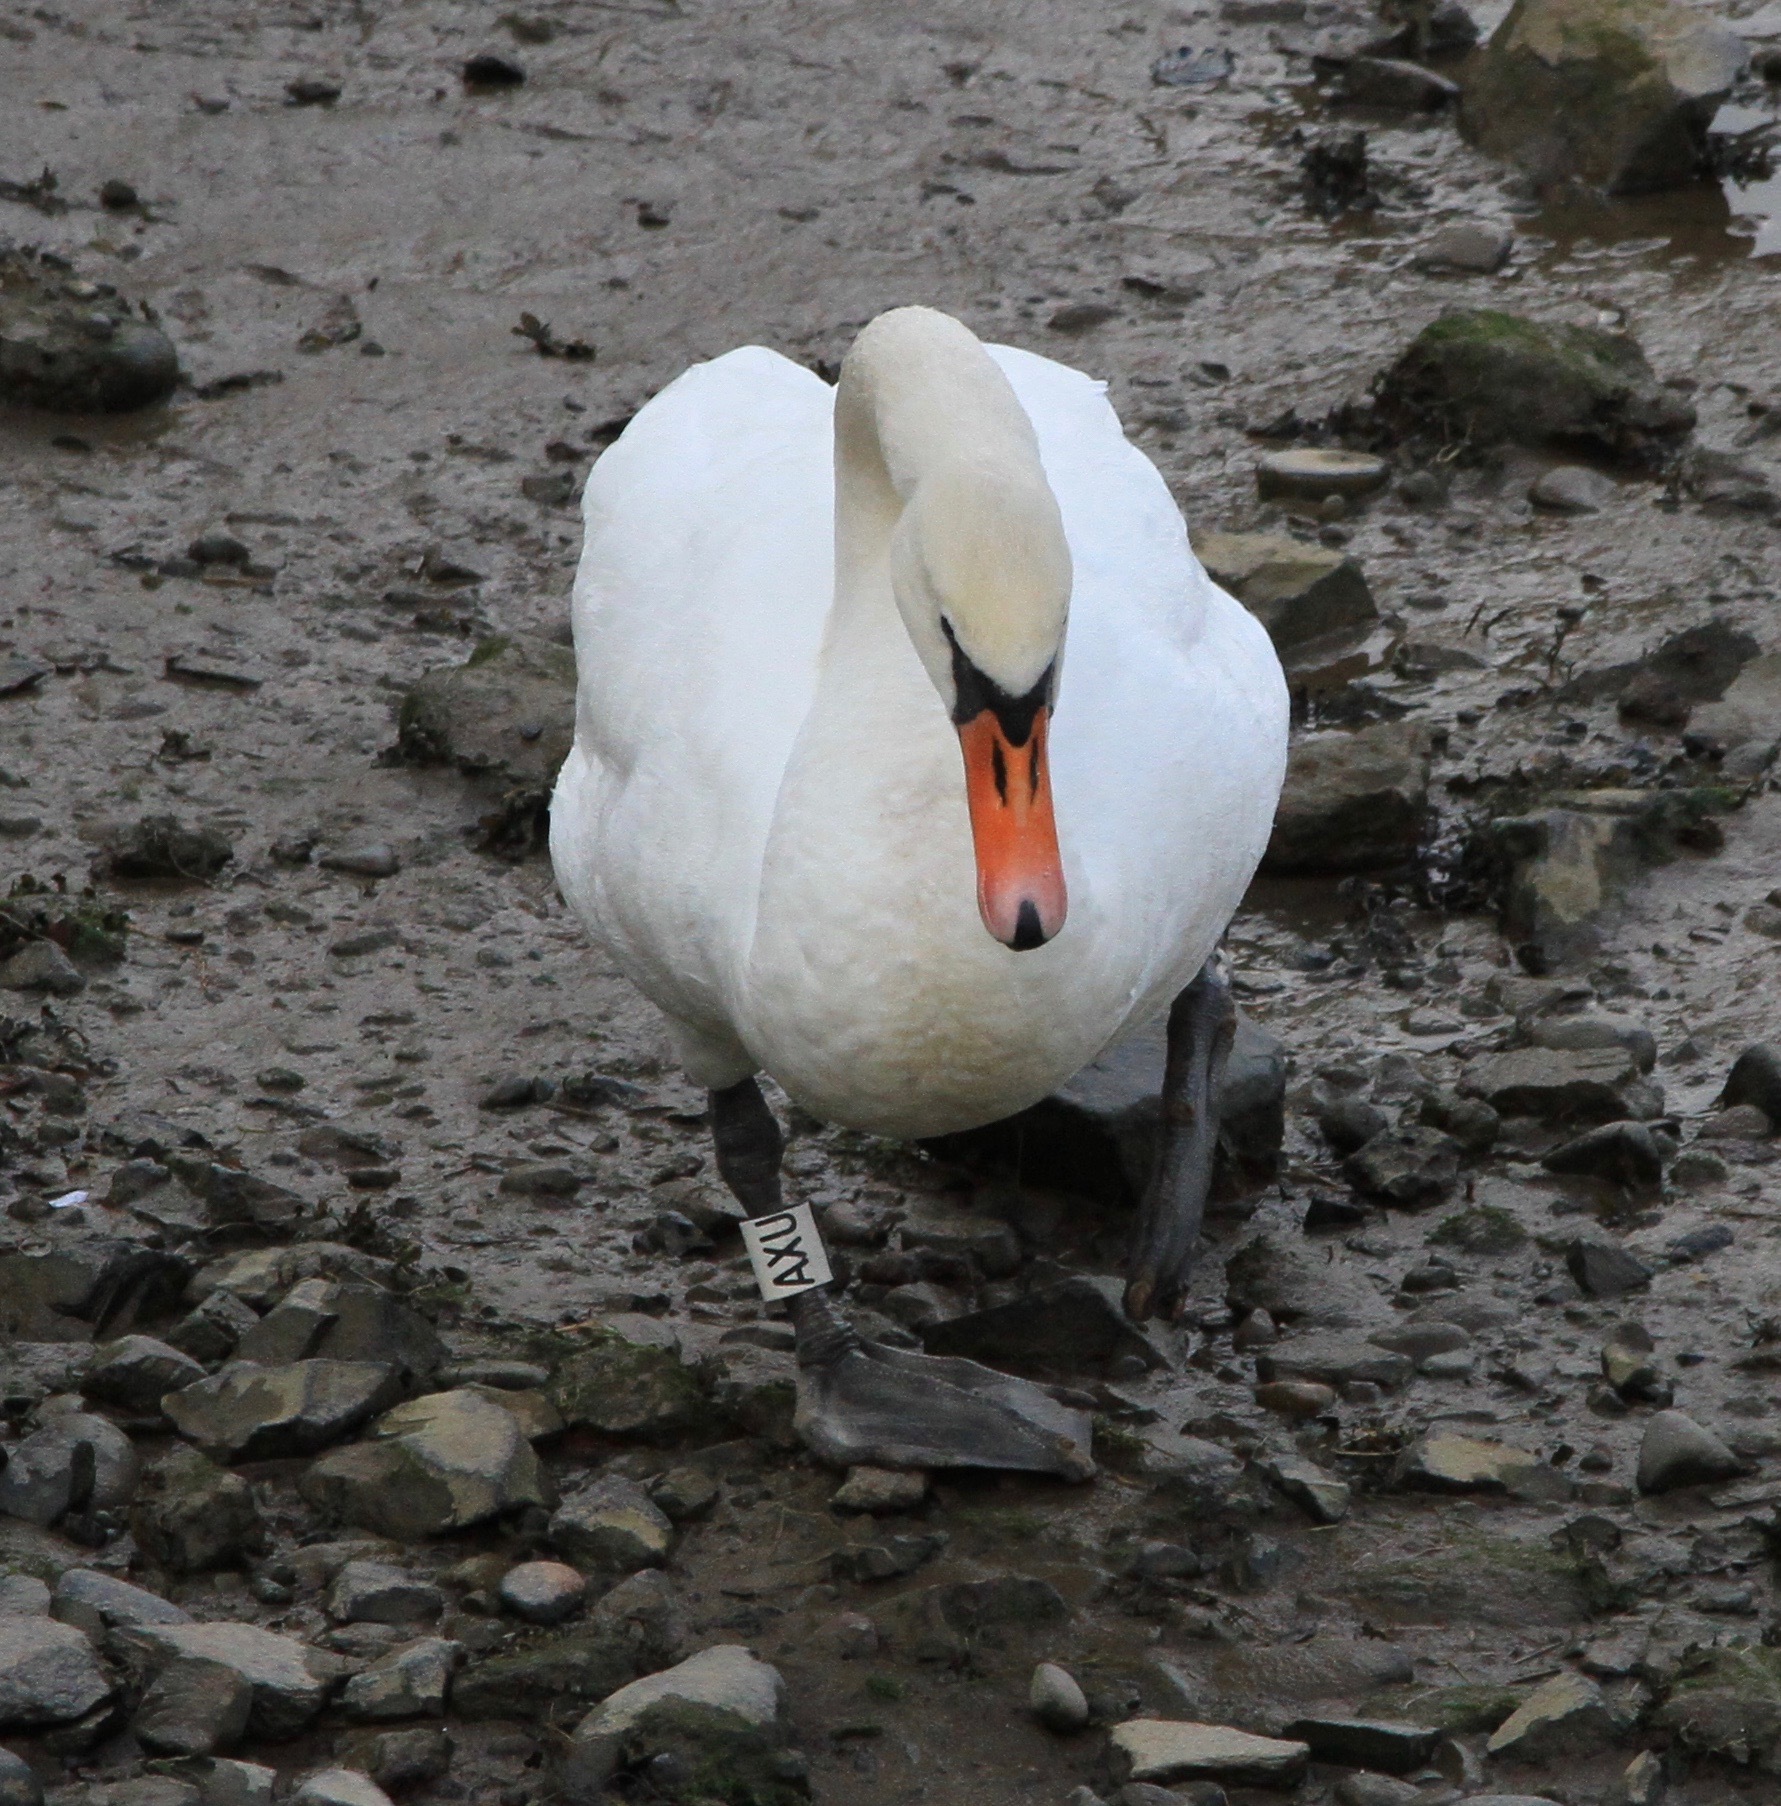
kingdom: Animalia
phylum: Chordata
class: Aves
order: Anseriformes
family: Anatidae
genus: Cygnus
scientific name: Cygnus olor
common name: Mute swan
